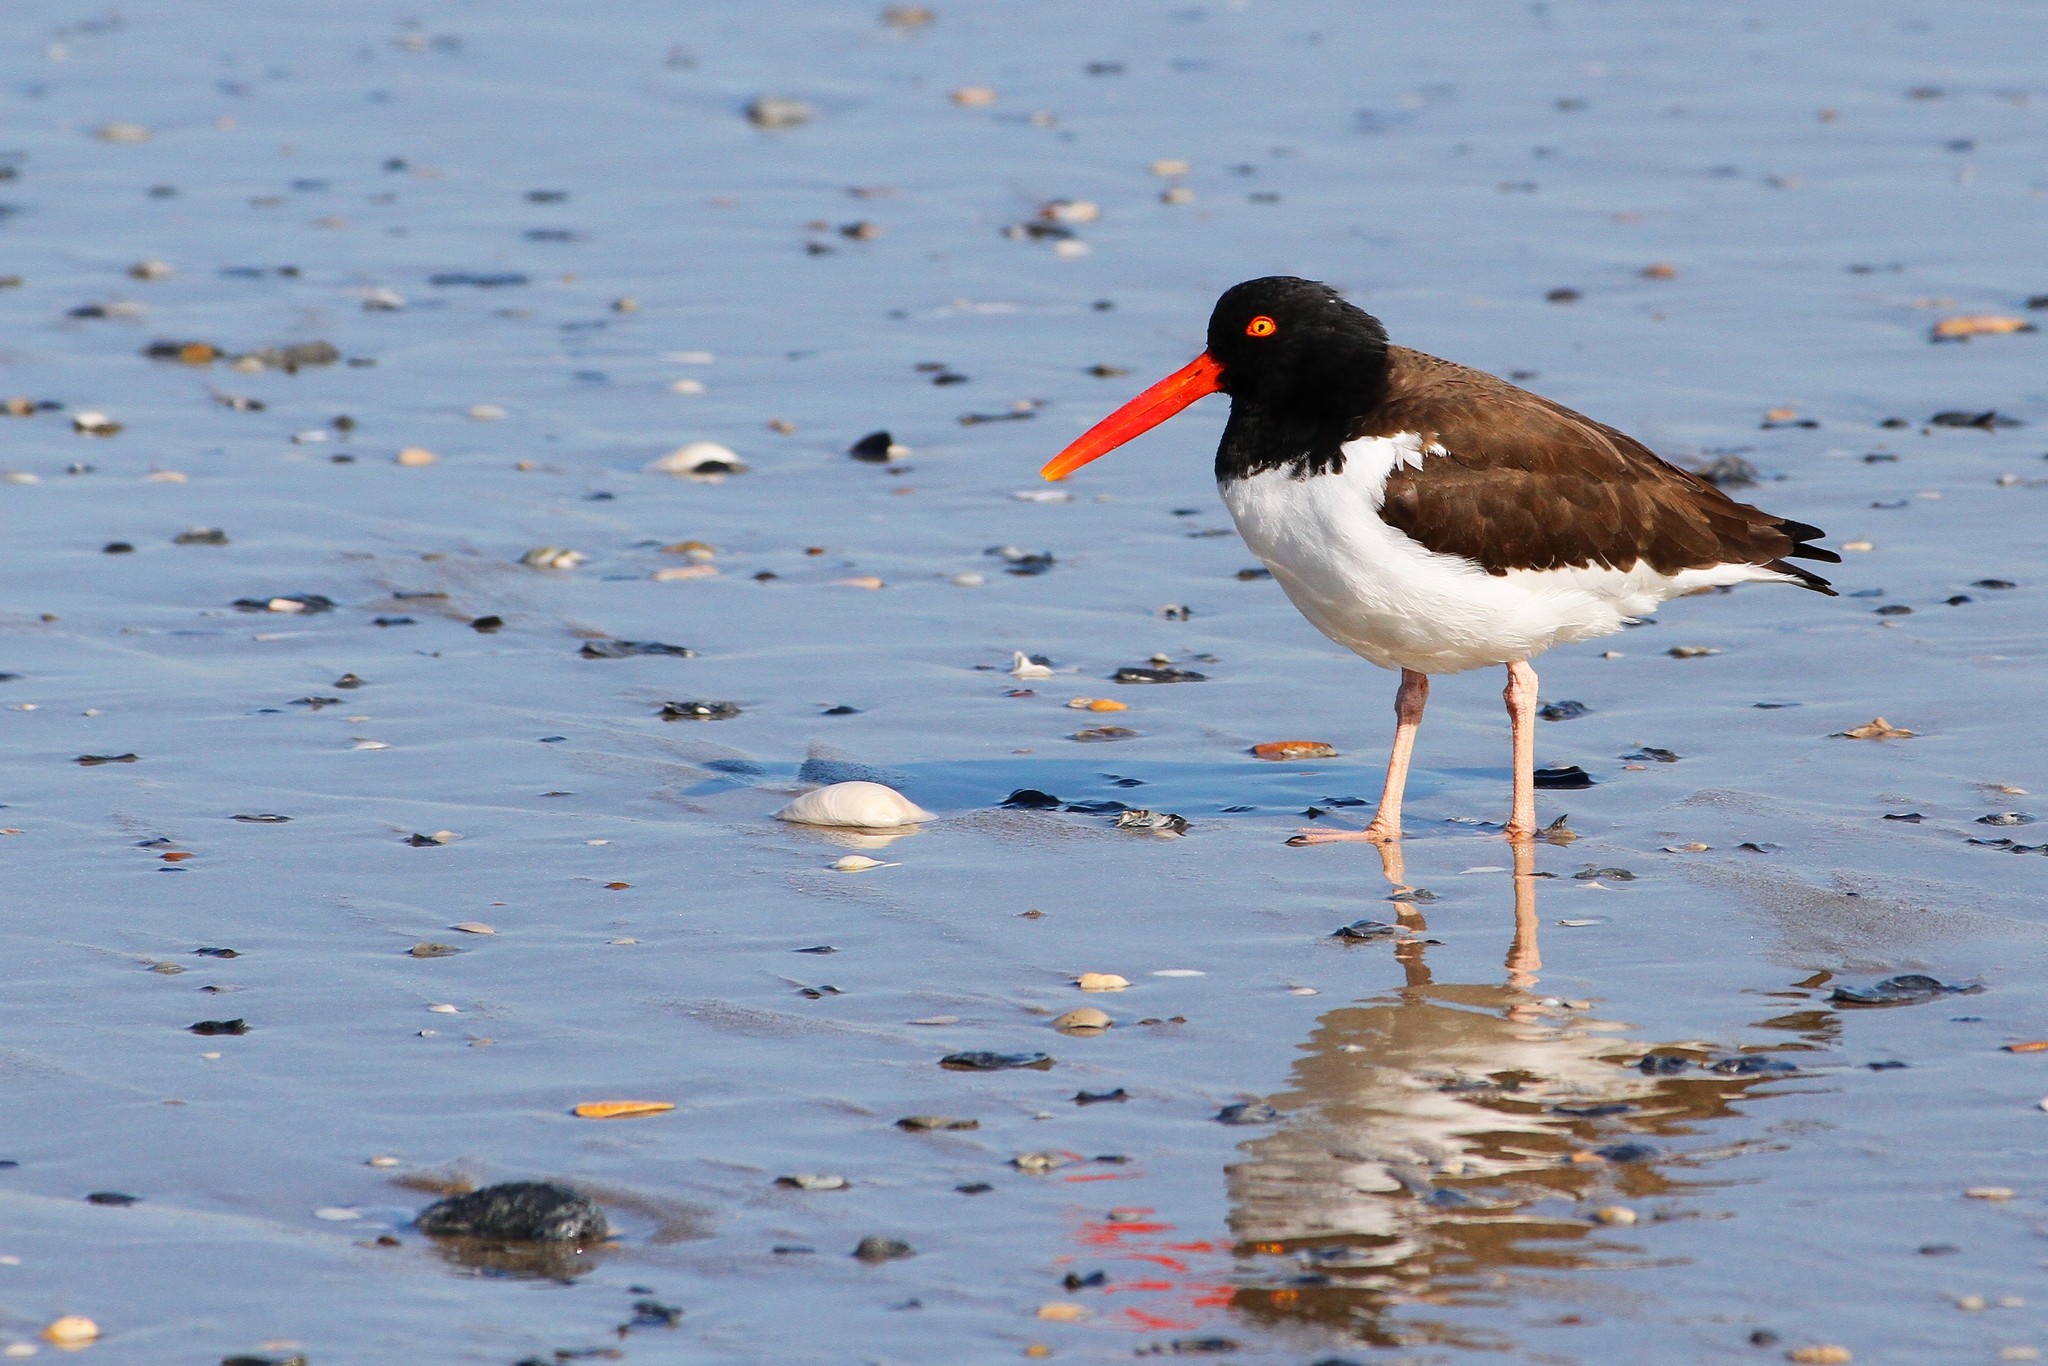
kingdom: Animalia
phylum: Chordata
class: Aves
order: Charadriiformes
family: Haematopodidae
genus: Haematopus
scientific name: Haematopus palliatus
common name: American oystercatcher
